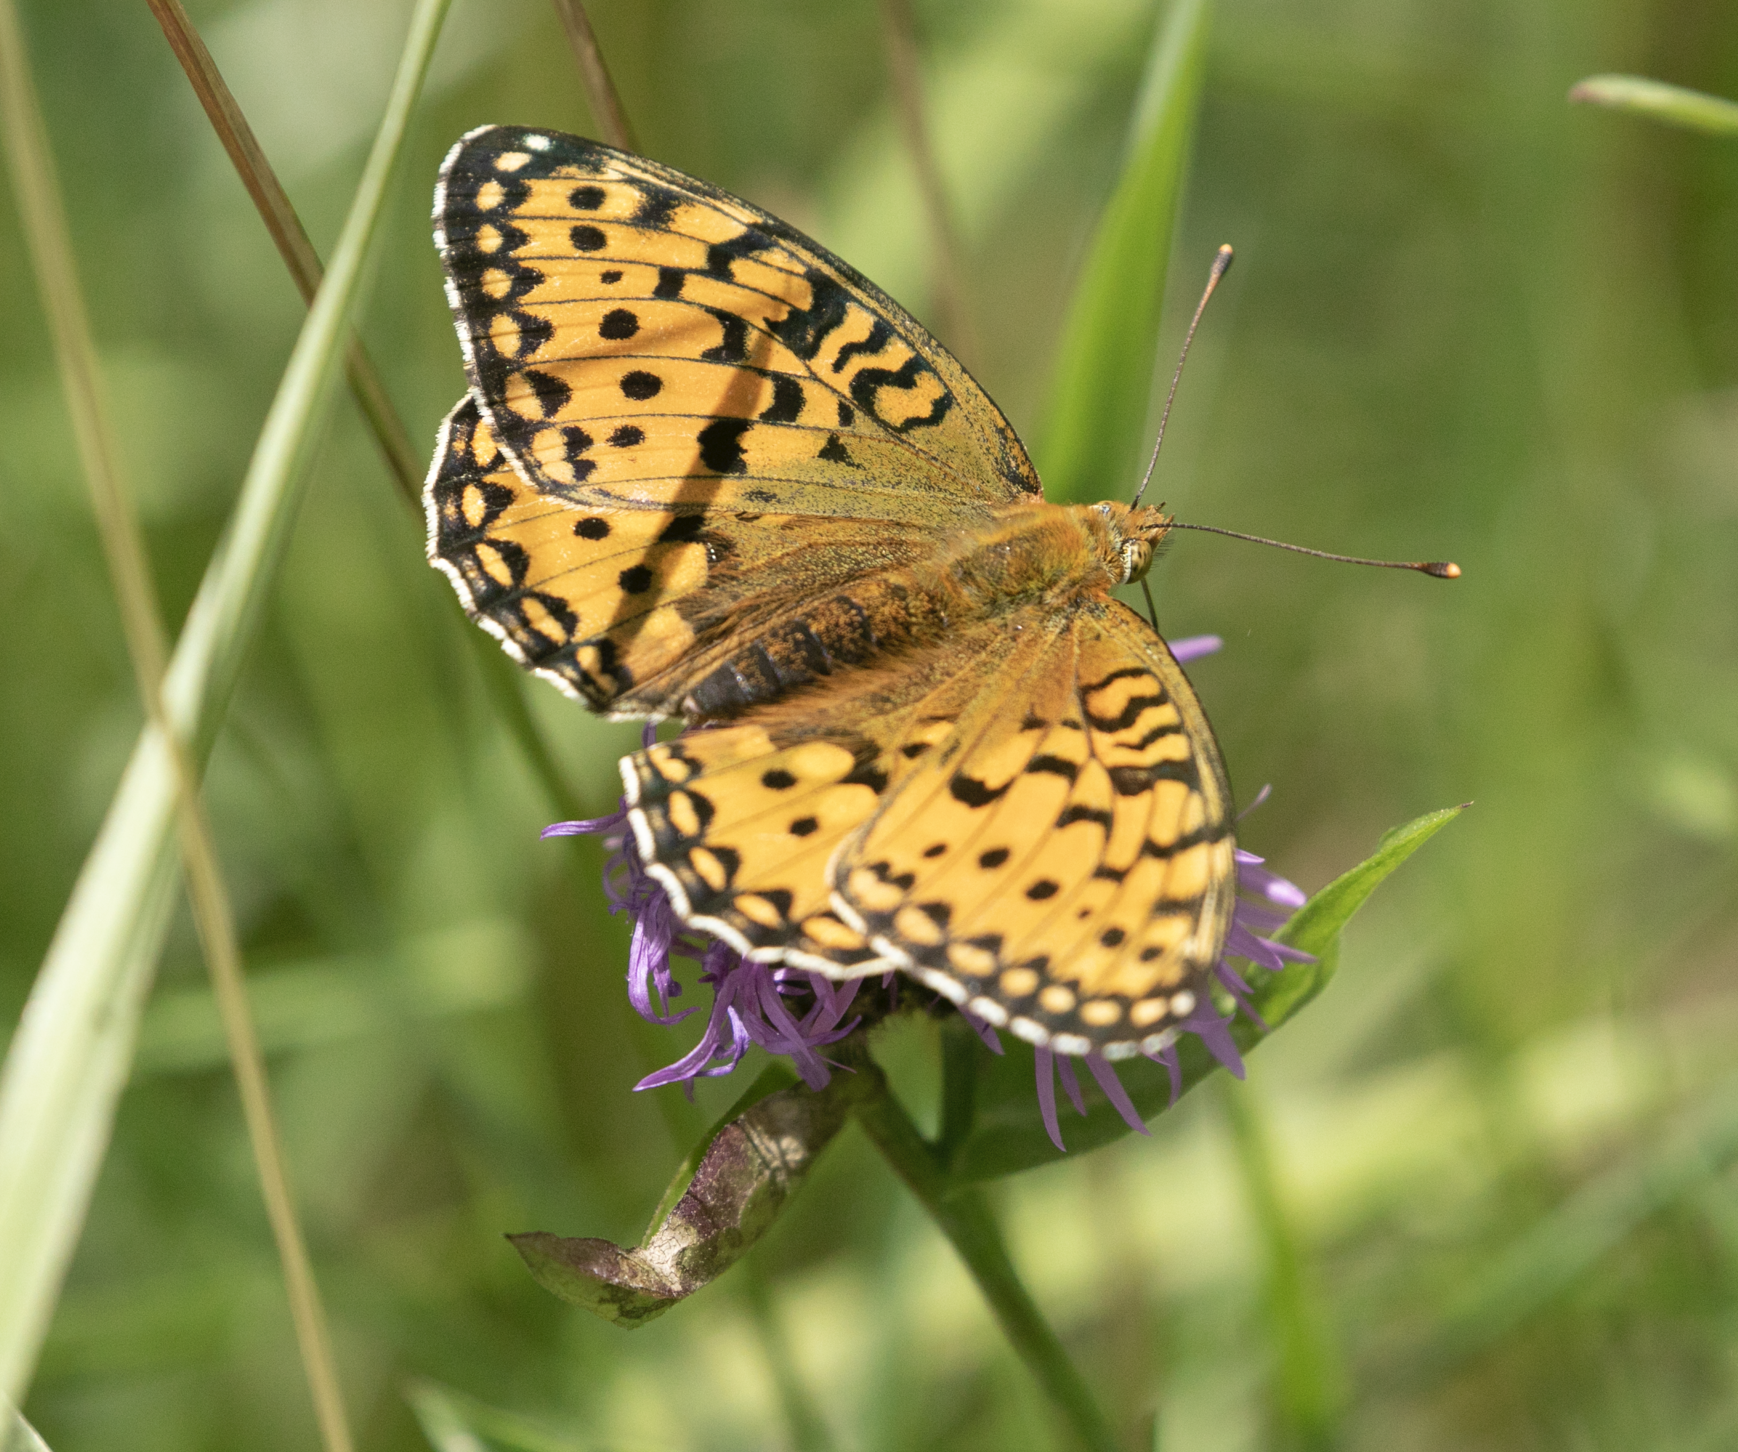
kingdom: Animalia
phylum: Arthropoda
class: Insecta
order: Lepidoptera
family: Nymphalidae
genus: Speyeria
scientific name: Speyeria aglaja
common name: Dark green fritillary
